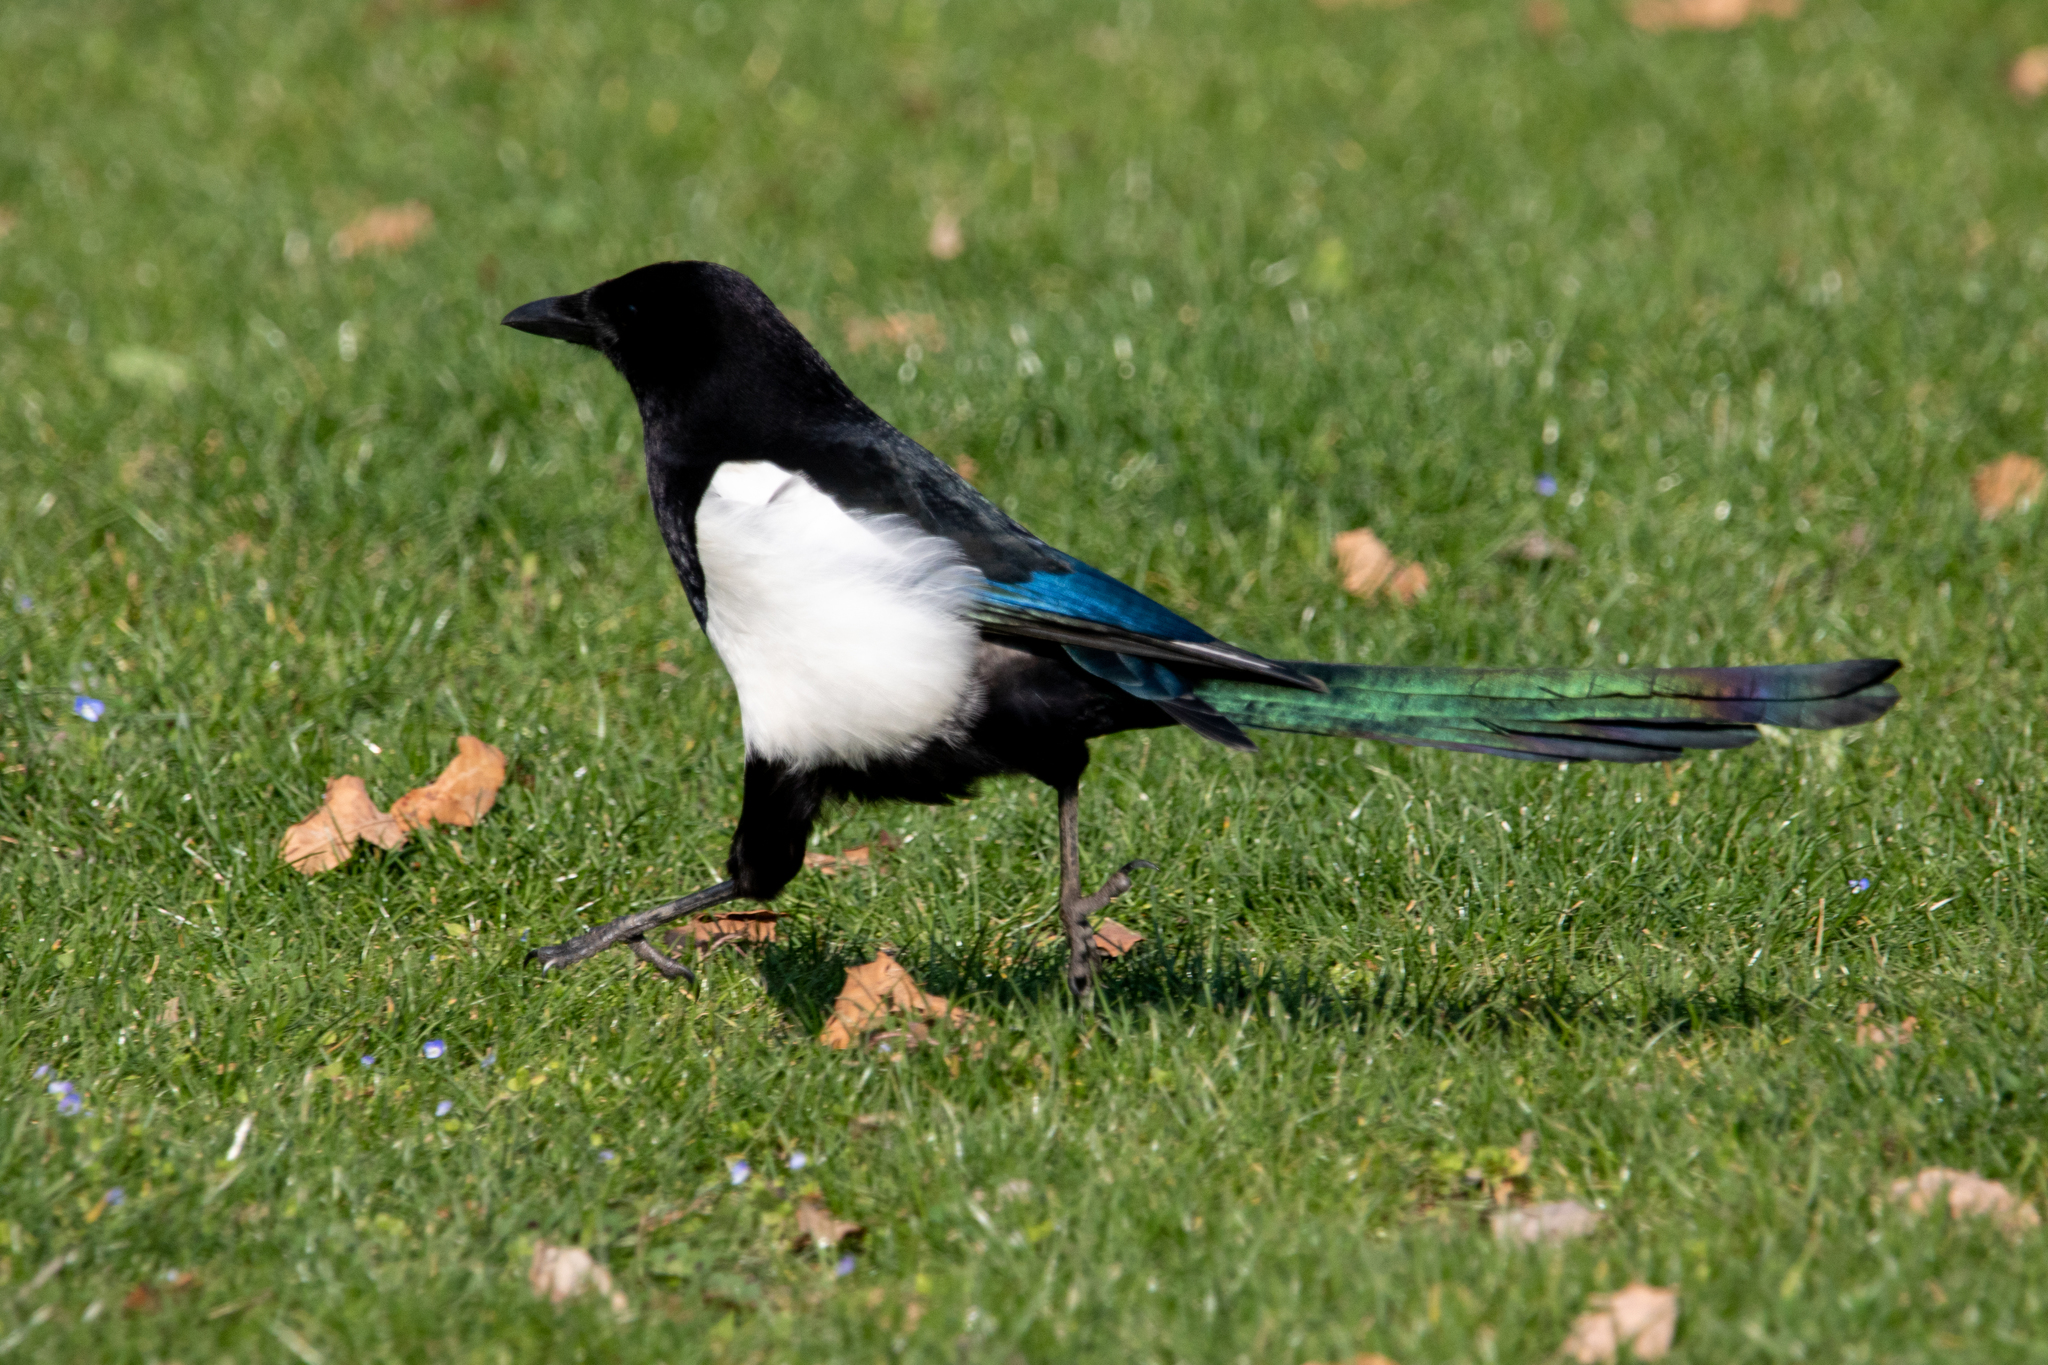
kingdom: Animalia
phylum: Chordata
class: Aves
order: Passeriformes
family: Corvidae
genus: Pica
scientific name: Pica pica
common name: Eurasian magpie
